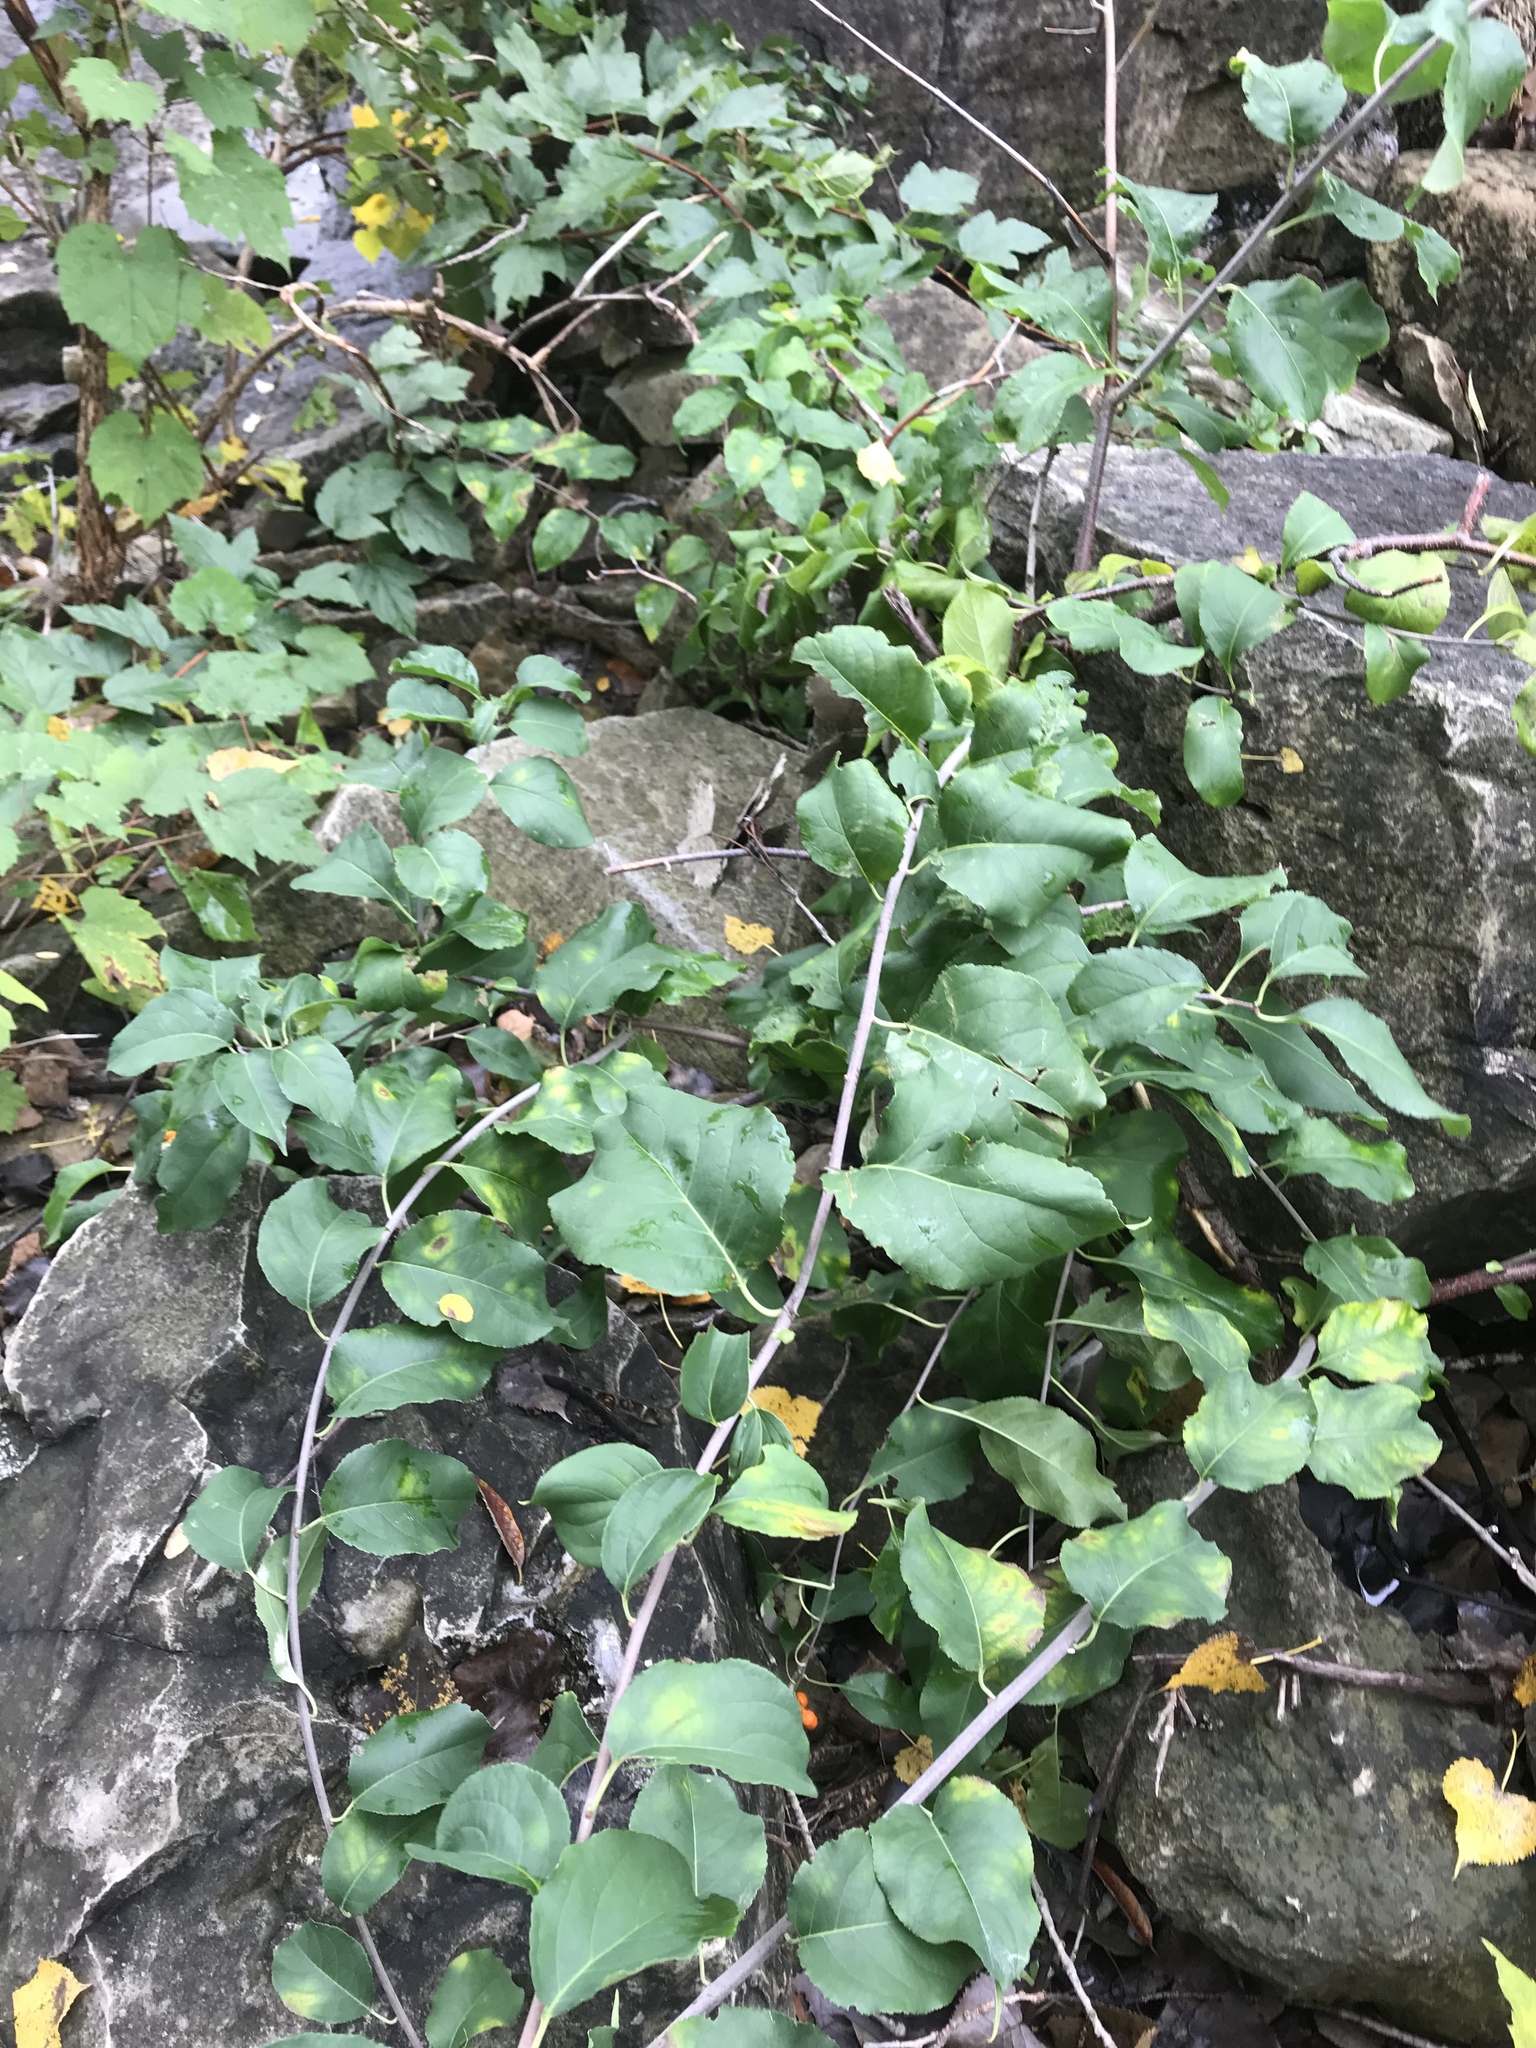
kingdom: Plantae
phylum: Tracheophyta
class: Magnoliopsida
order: Celastrales
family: Celastraceae
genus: Celastrus
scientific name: Celastrus scandens
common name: American bittersweet
